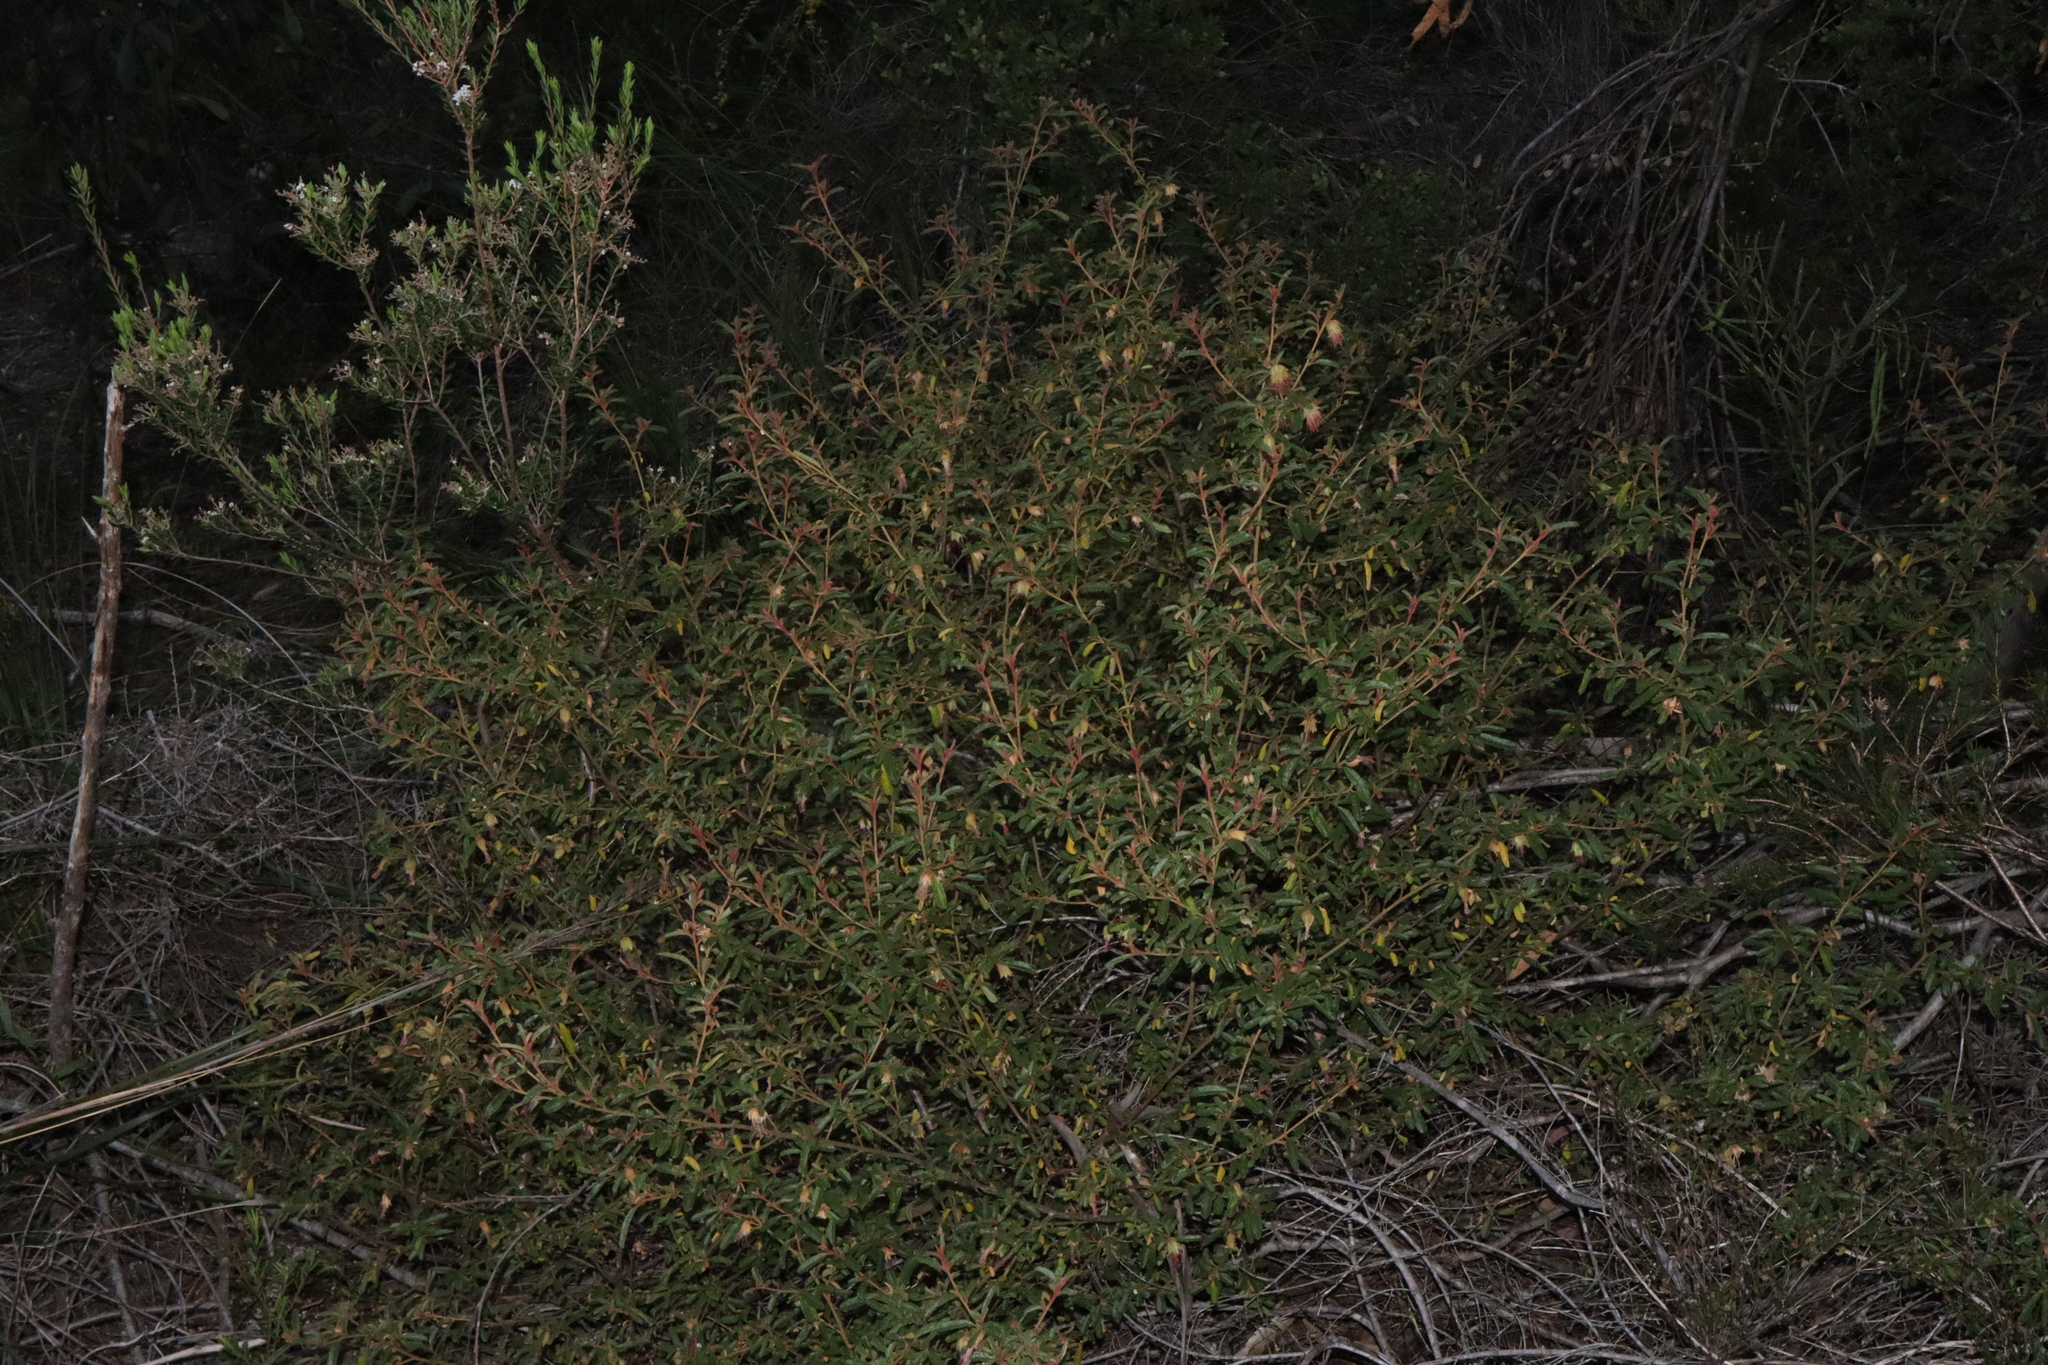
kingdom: Plantae
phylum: Tracheophyta
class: Magnoliopsida
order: Sapindales
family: Rutaceae
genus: Diplolaena
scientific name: Diplolaena microcephala
